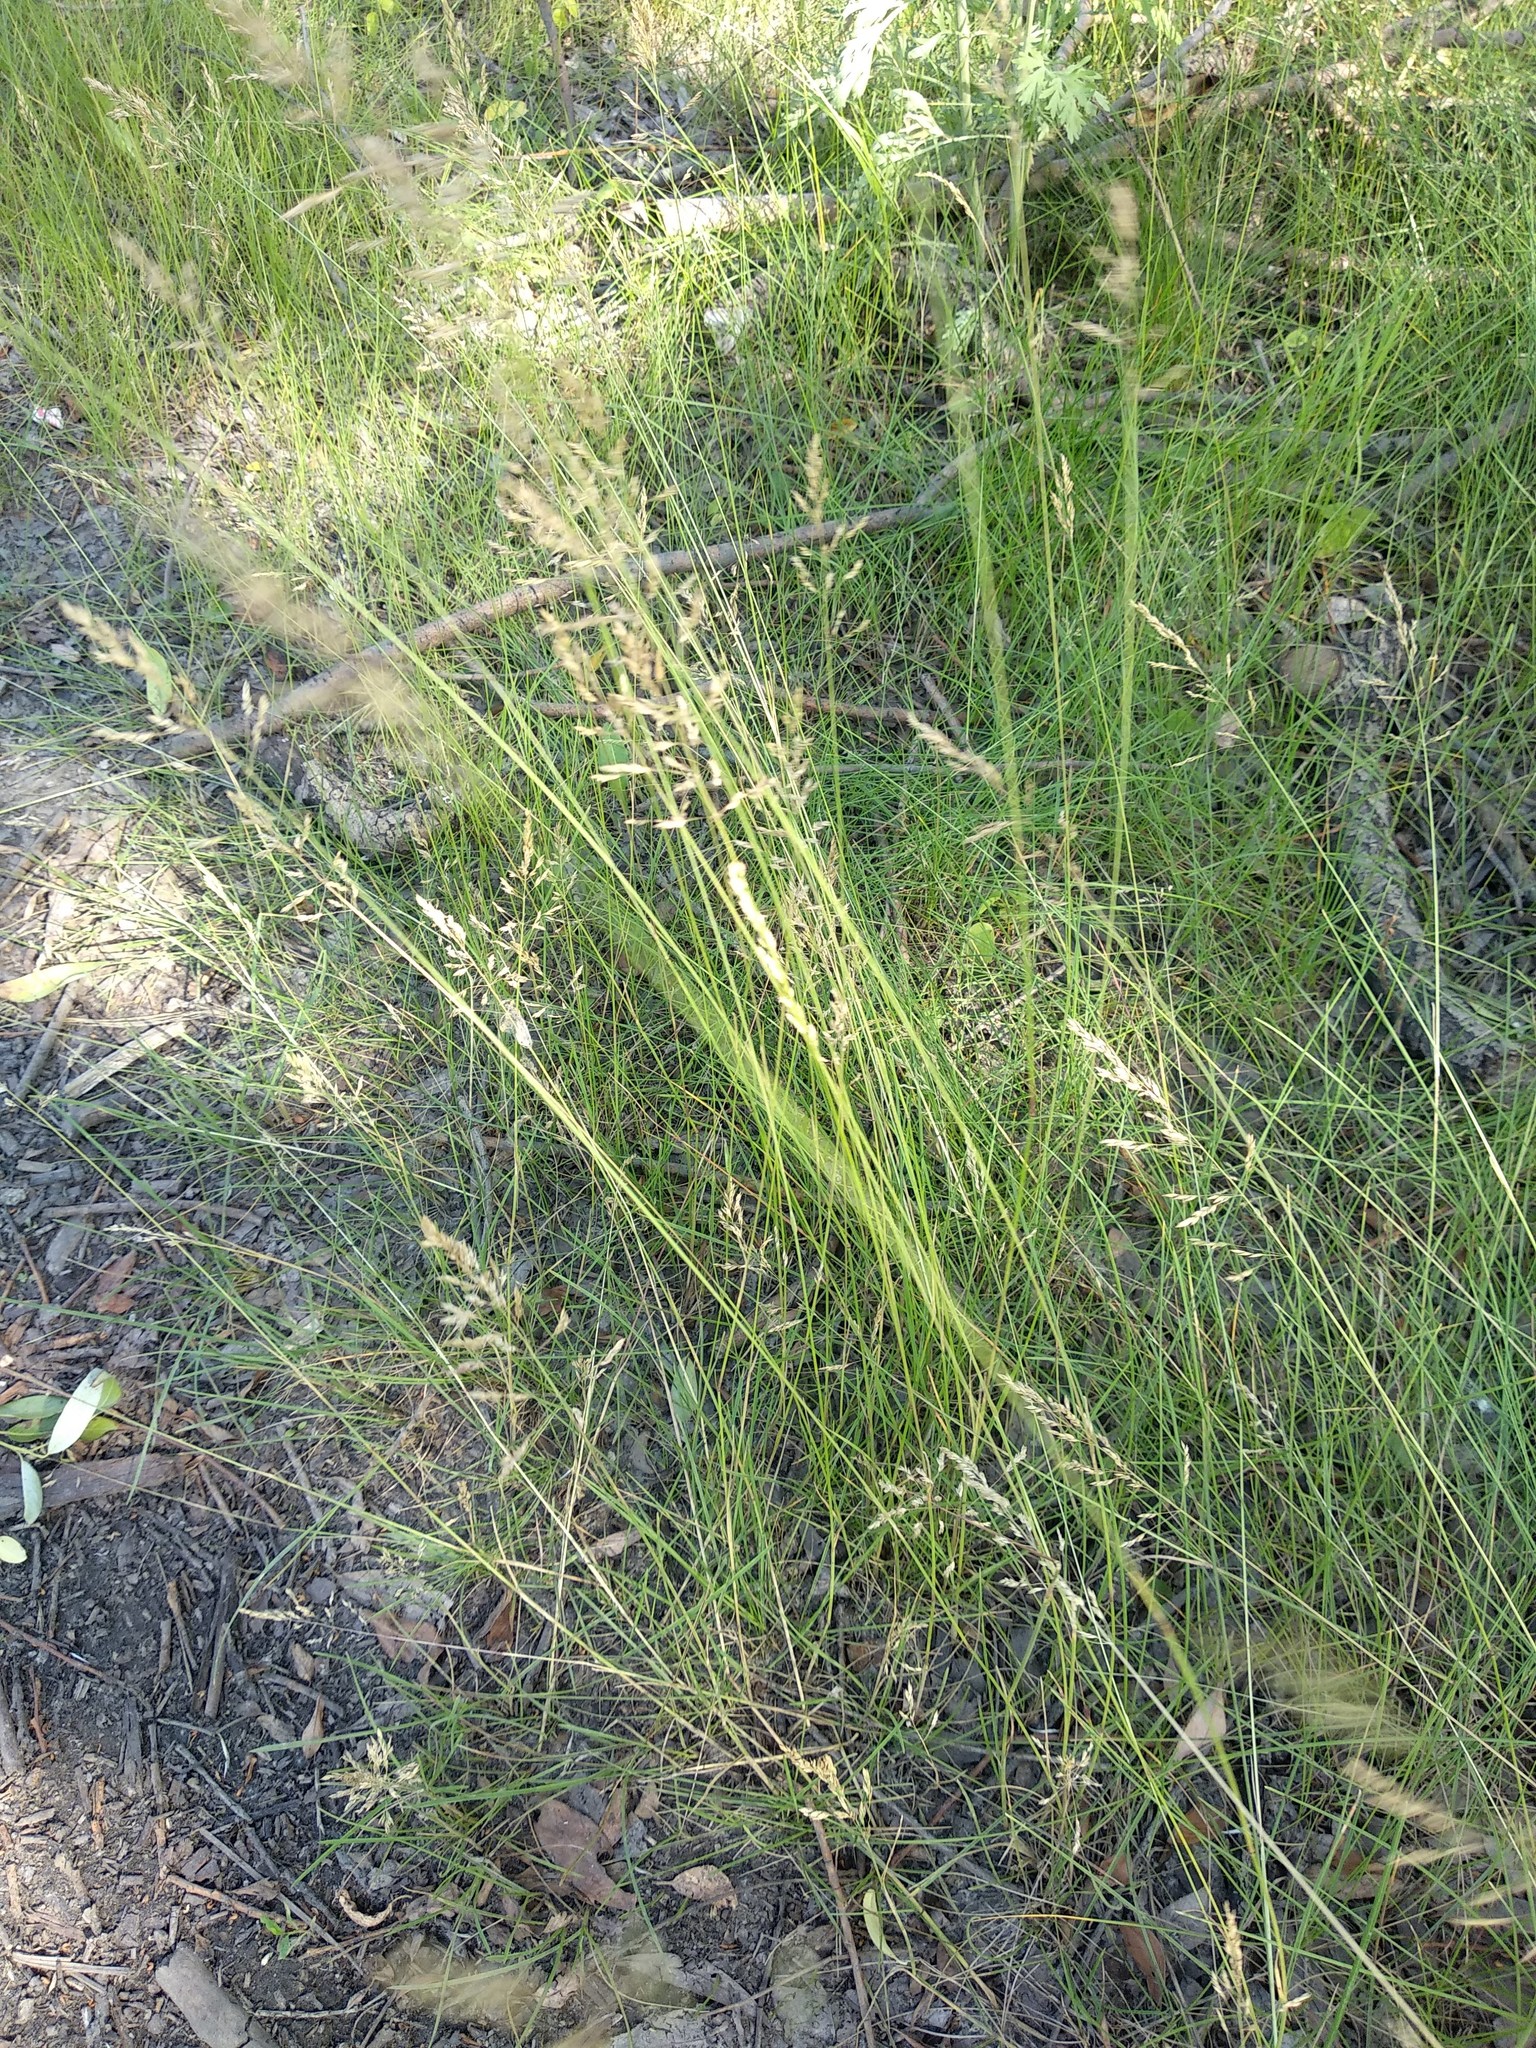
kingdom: Plantae
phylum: Tracheophyta
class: Liliopsida
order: Poales
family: Poaceae
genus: Poa
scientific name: Poa angustifolia
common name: Narrow-leaved meadow-grass
